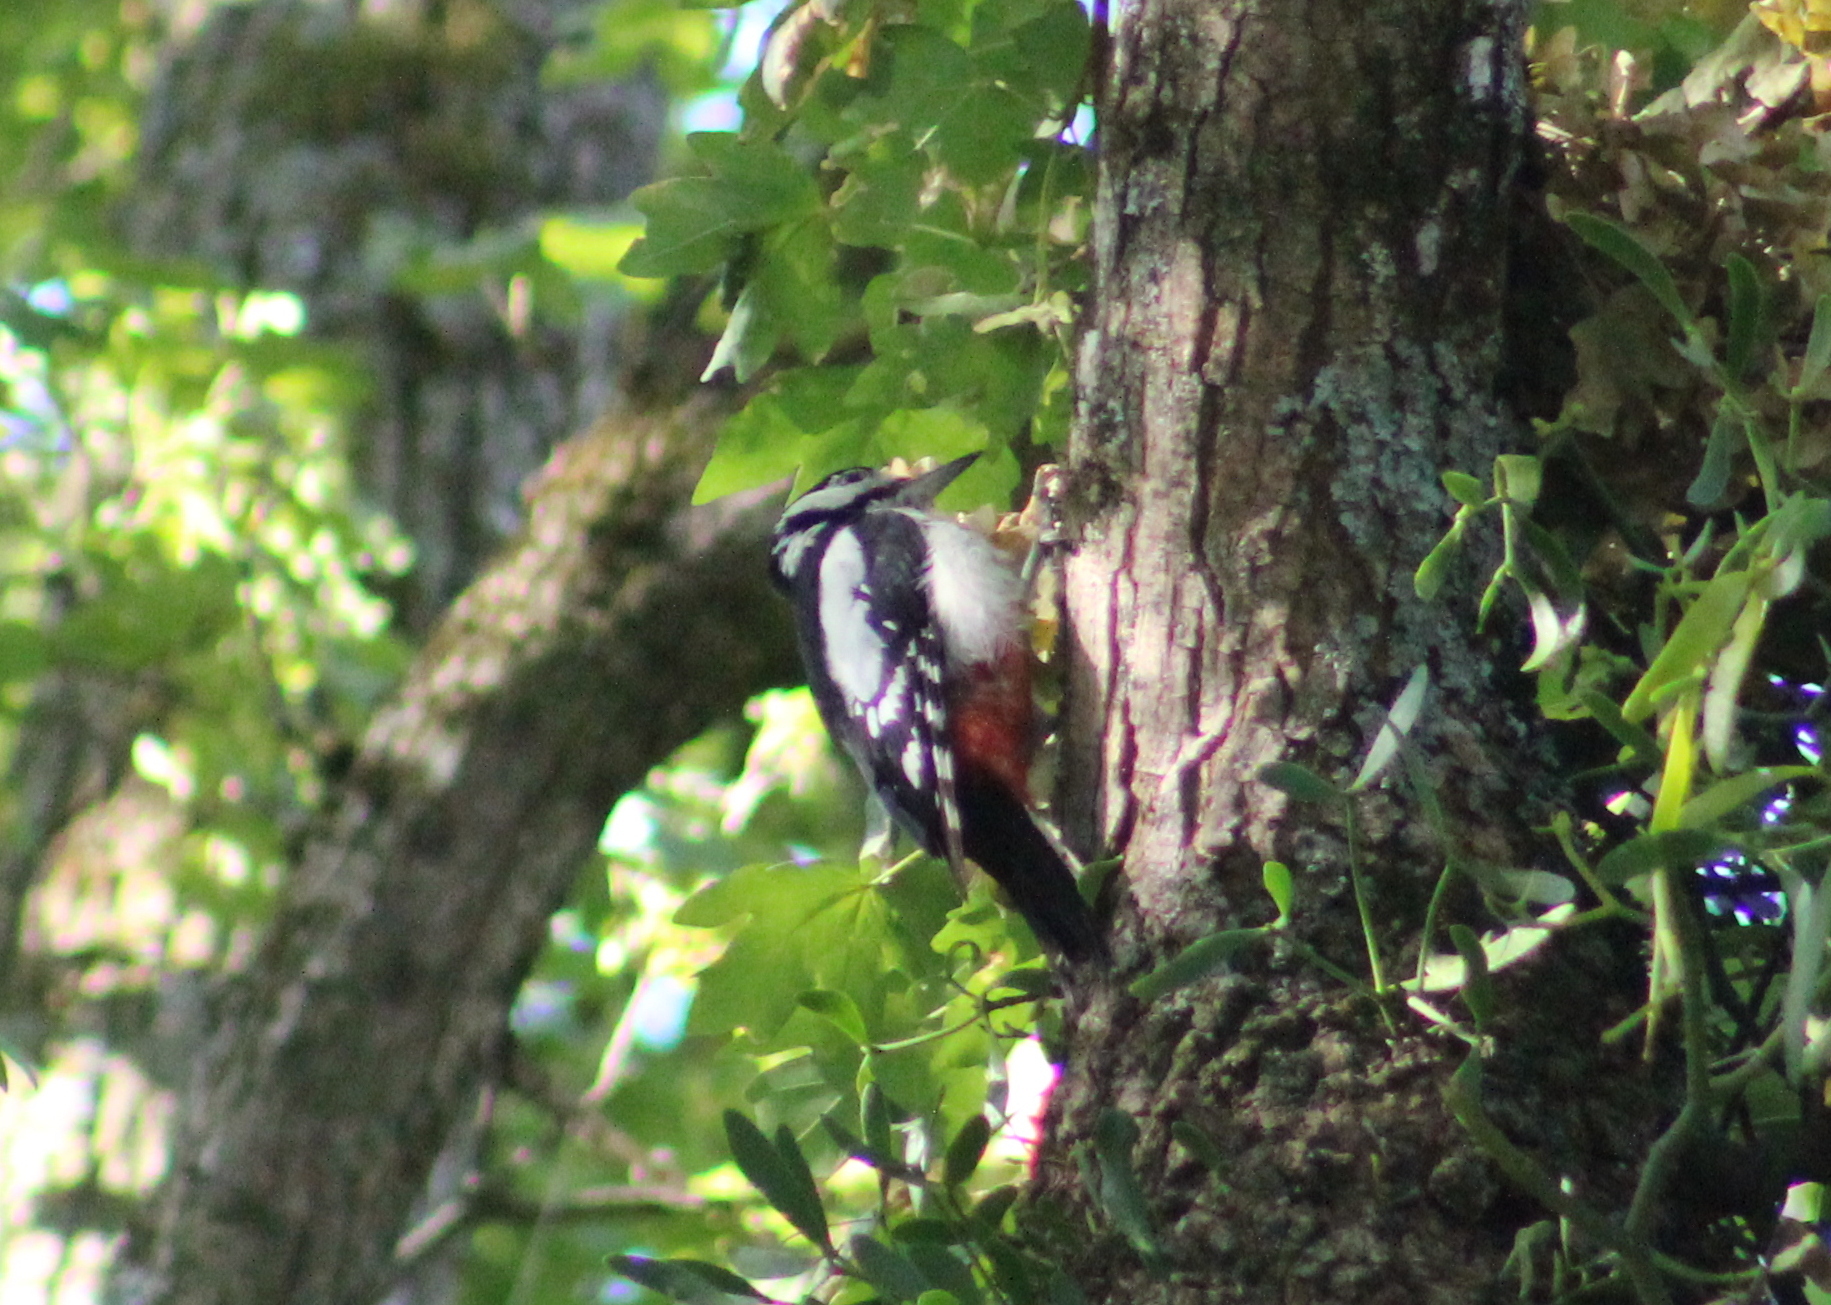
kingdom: Animalia
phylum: Chordata
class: Aves
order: Piciformes
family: Picidae
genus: Dendrocopos
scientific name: Dendrocopos major
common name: Great spotted woodpecker
